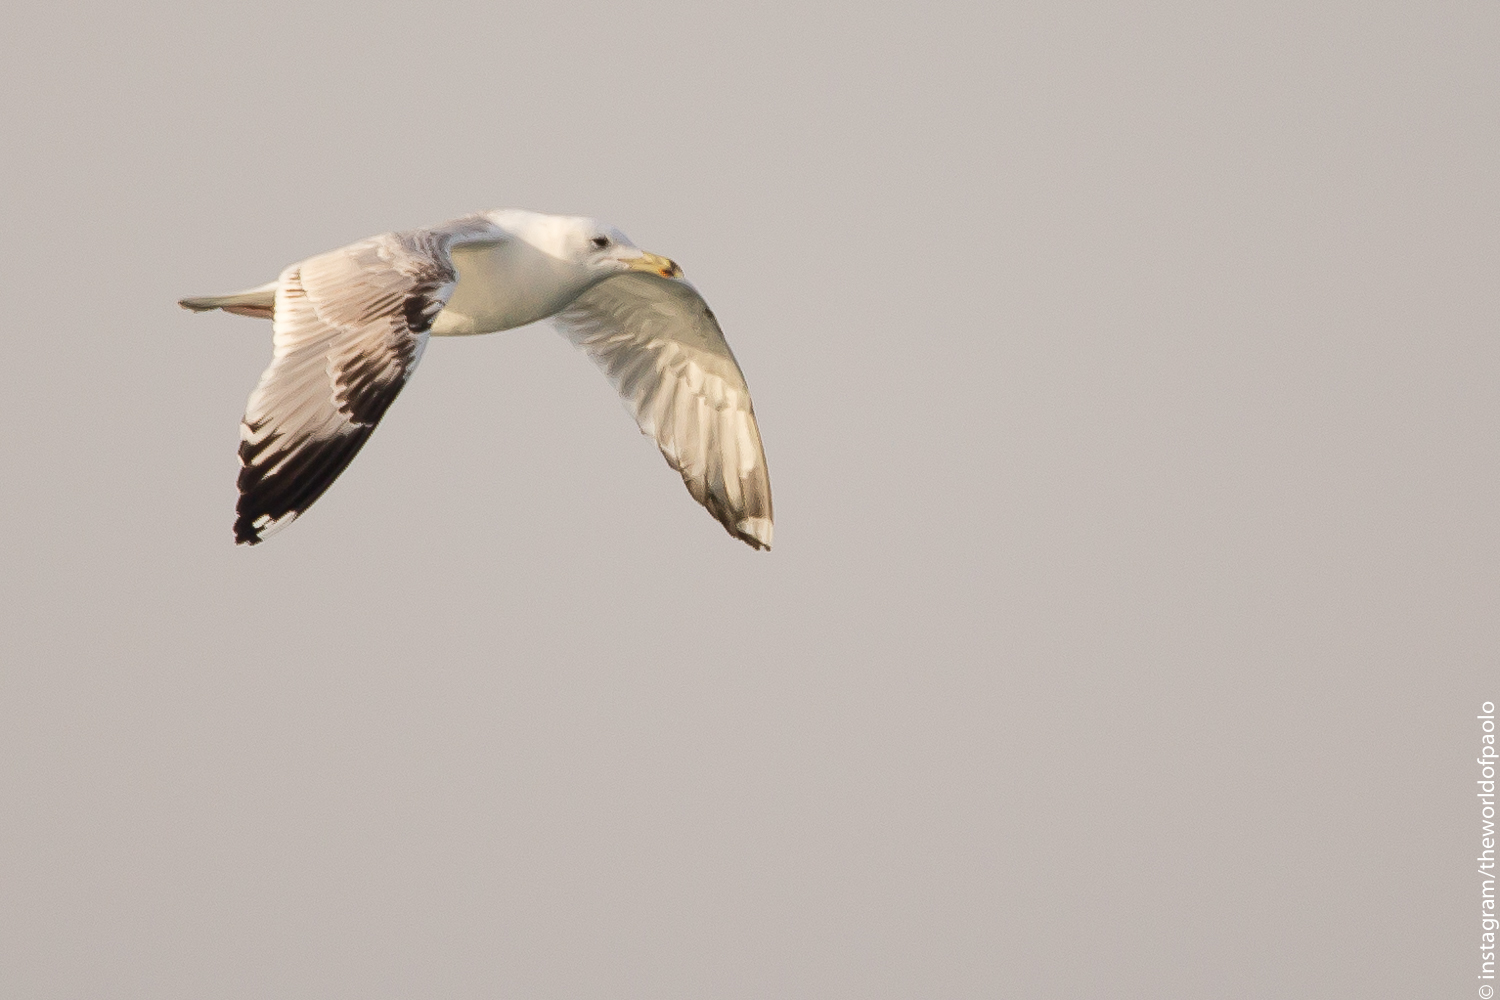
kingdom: Animalia
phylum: Chordata
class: Aves
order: Charadriiformes
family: Laridae
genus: Larus
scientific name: Larus cachinnans
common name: Caspian gull
